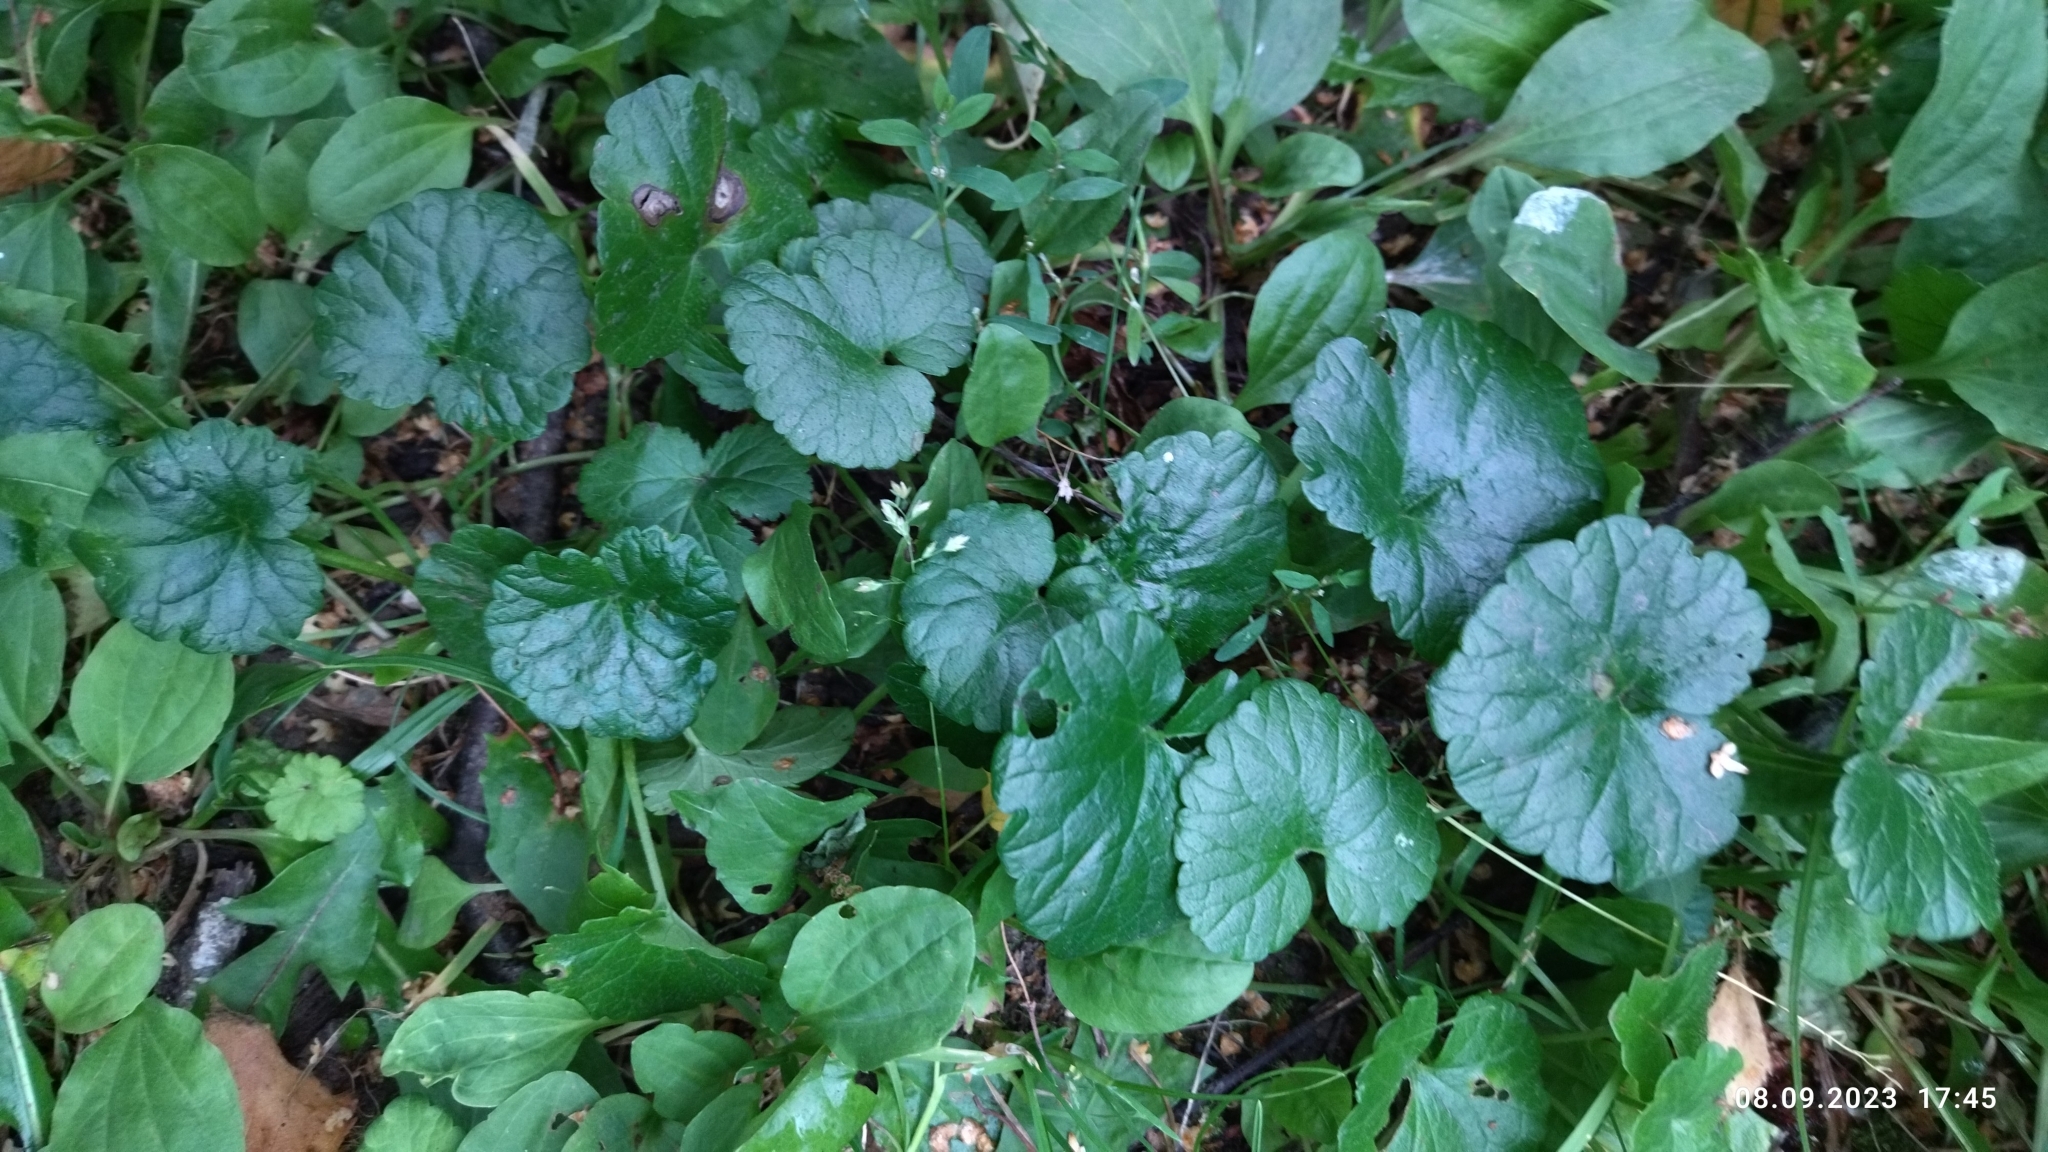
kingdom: Plantae
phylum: Tracheophyta
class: Magnoliopsida
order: Lamiales
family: Lamiaceae
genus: Glechoma
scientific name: Glechoma hederacea
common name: Ground ivy
